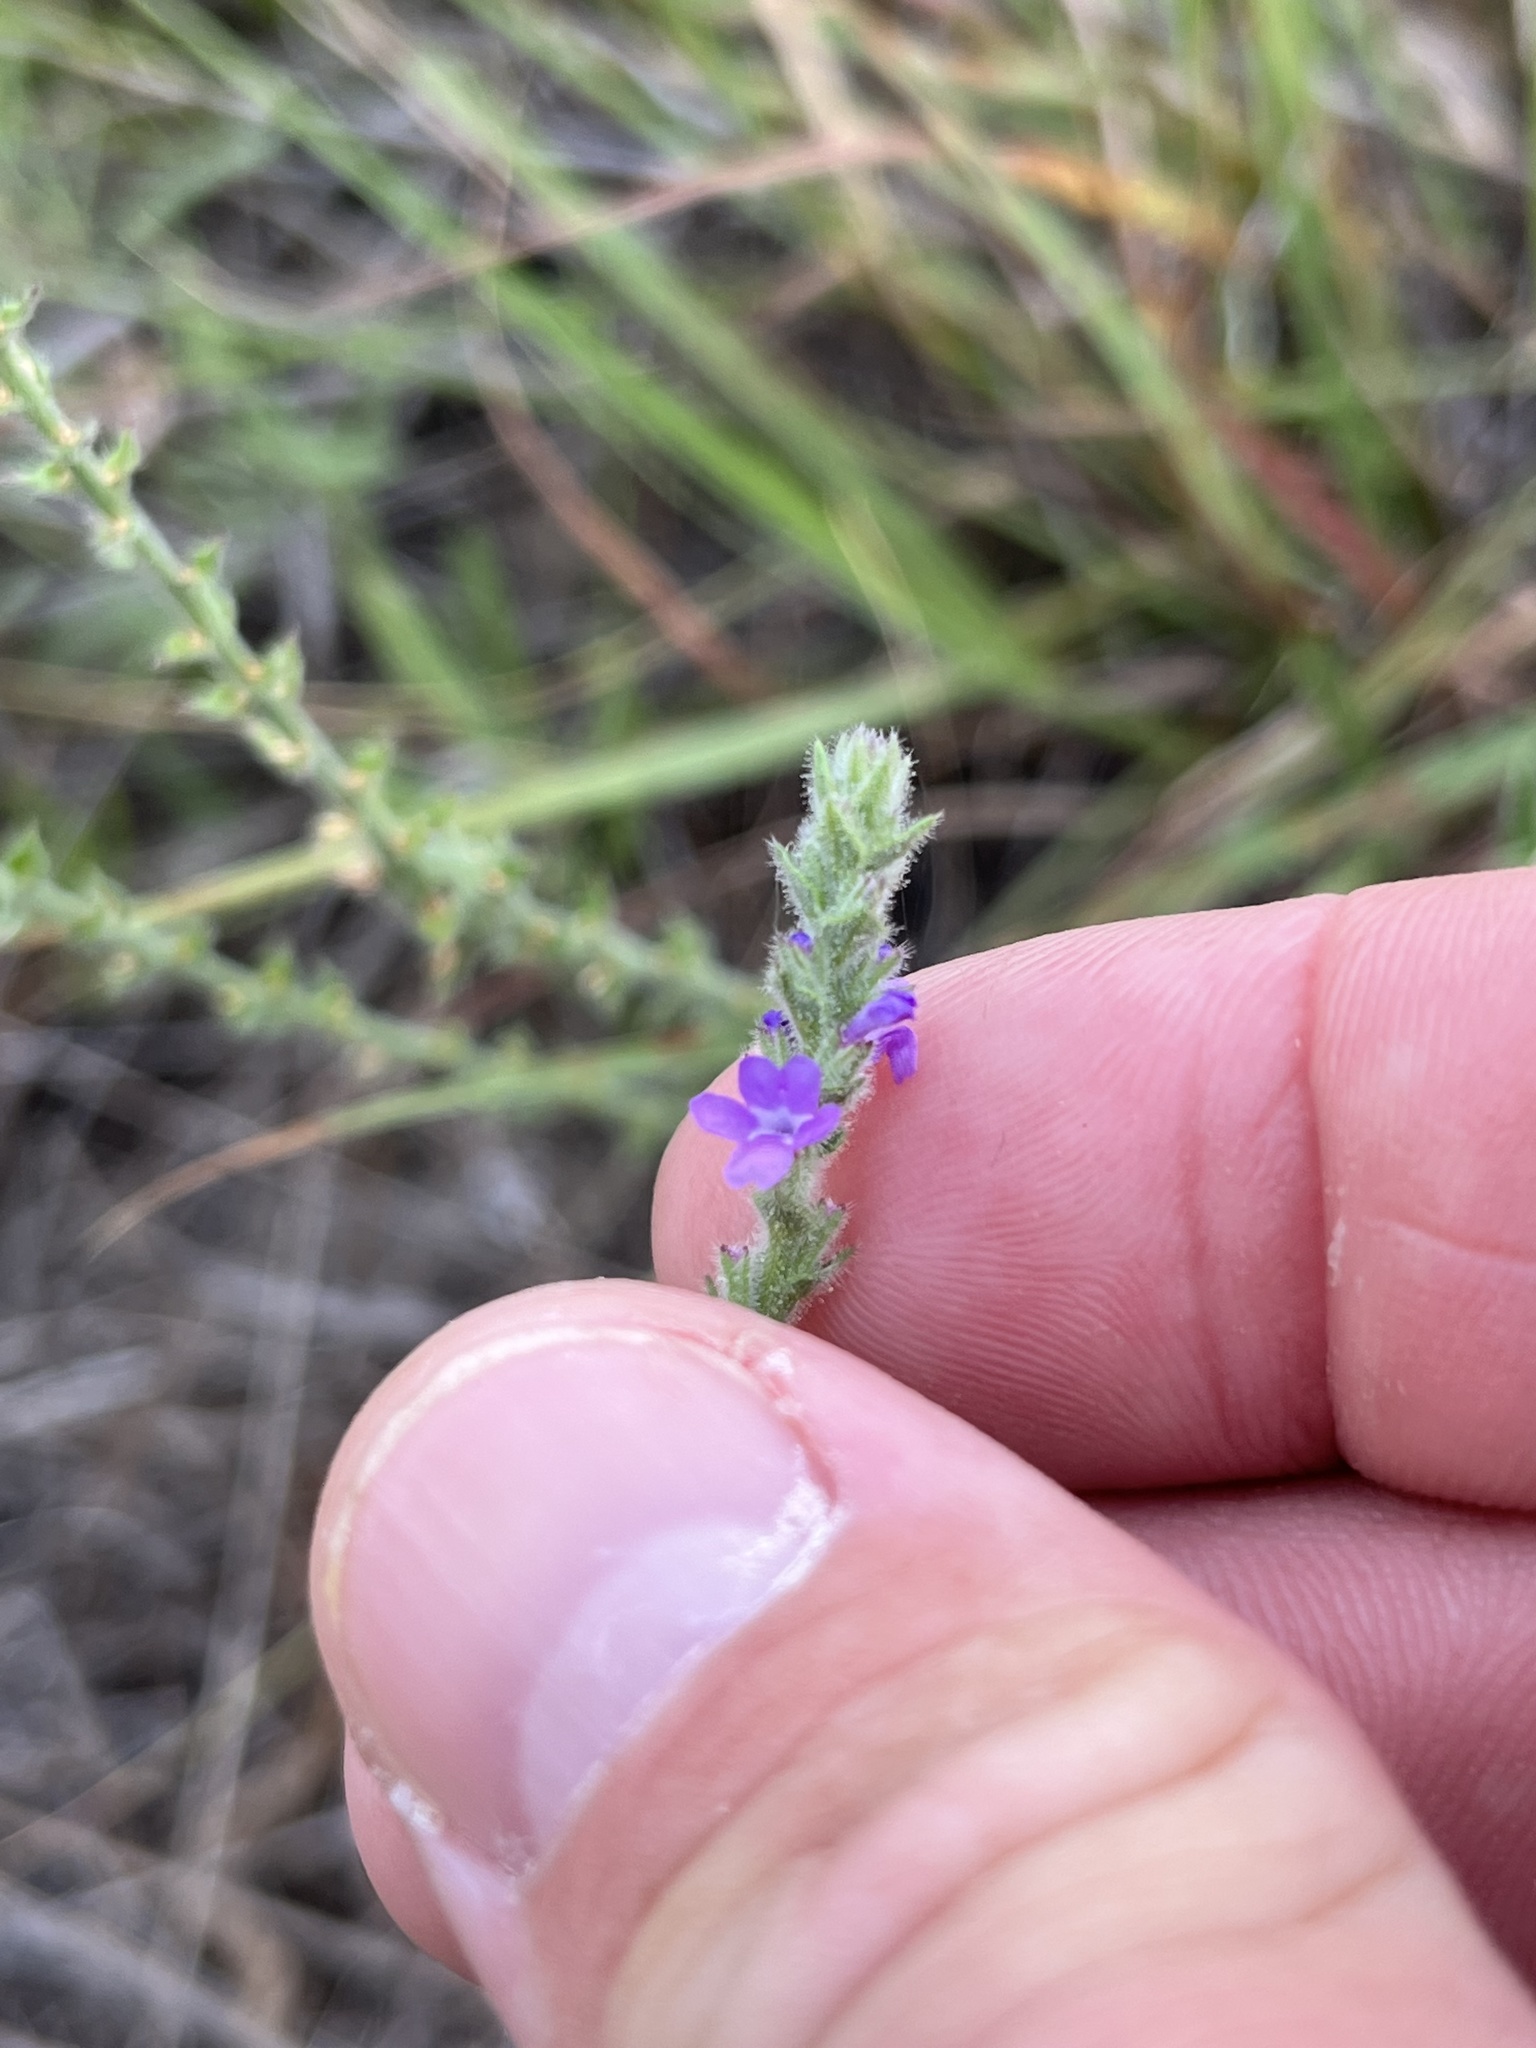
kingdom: Plantae
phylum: Tracheophyta
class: Magnoliopsida
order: Lamiales
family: Verbenaceae
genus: Verbena
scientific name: Verbena canescens
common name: Gray vervain
